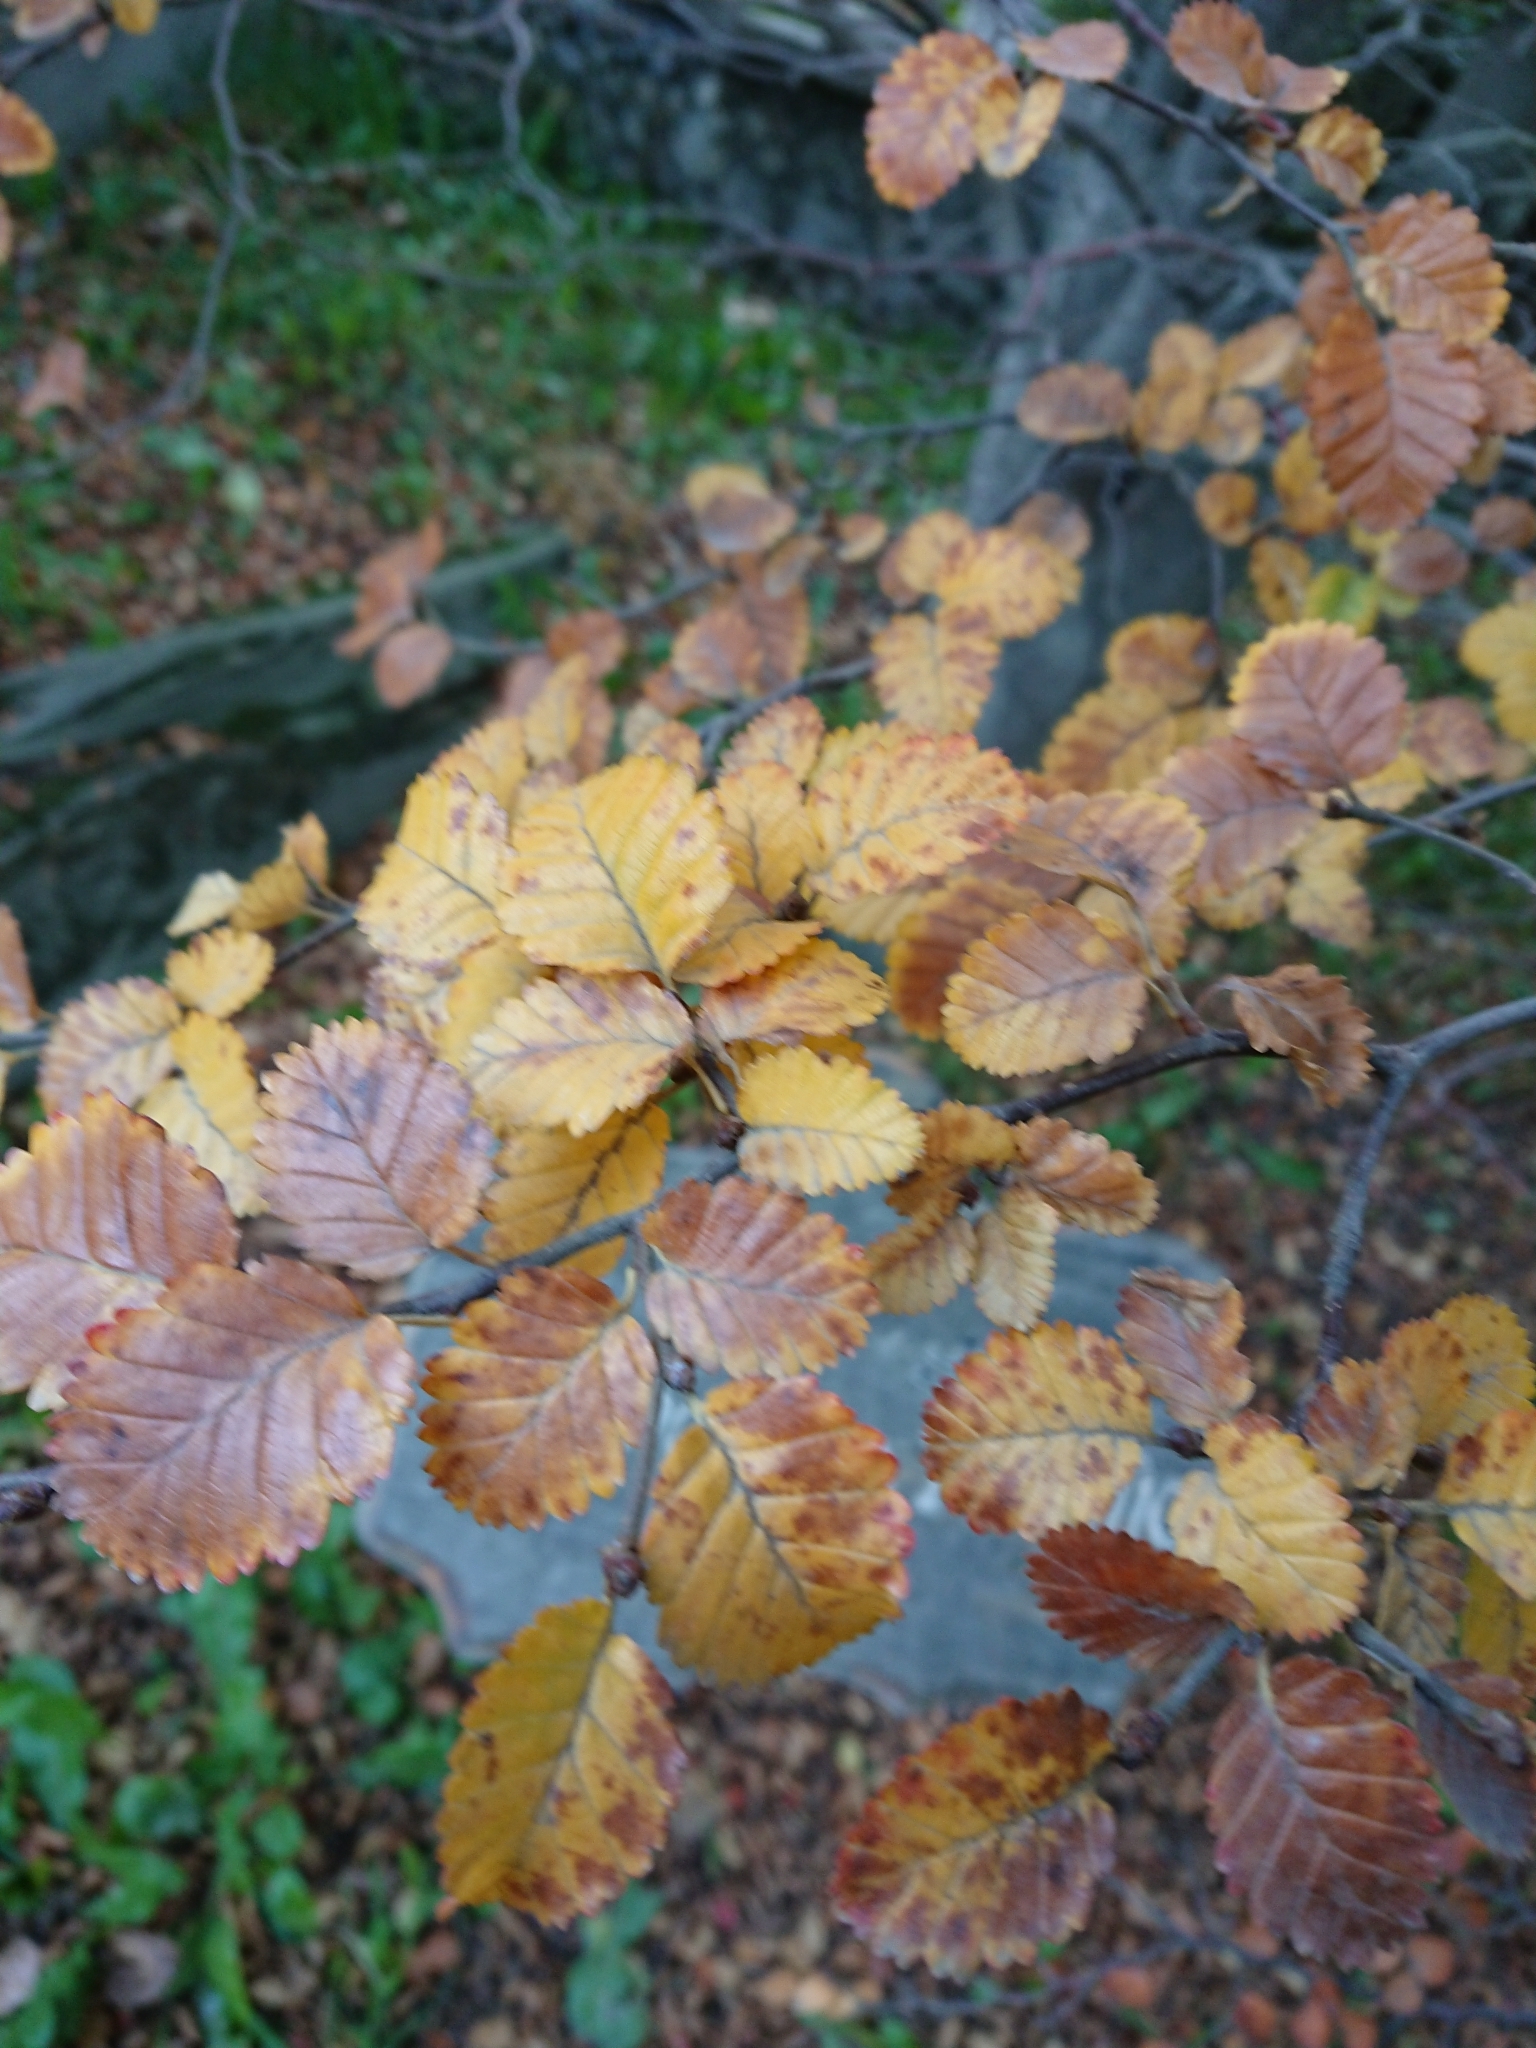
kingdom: Plantae
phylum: Tracheophyta
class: Magnoliopsida
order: Fagales
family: Nothofagaceae
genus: Nothofagus
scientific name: Nothofagus pumilio
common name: Lenga beech
